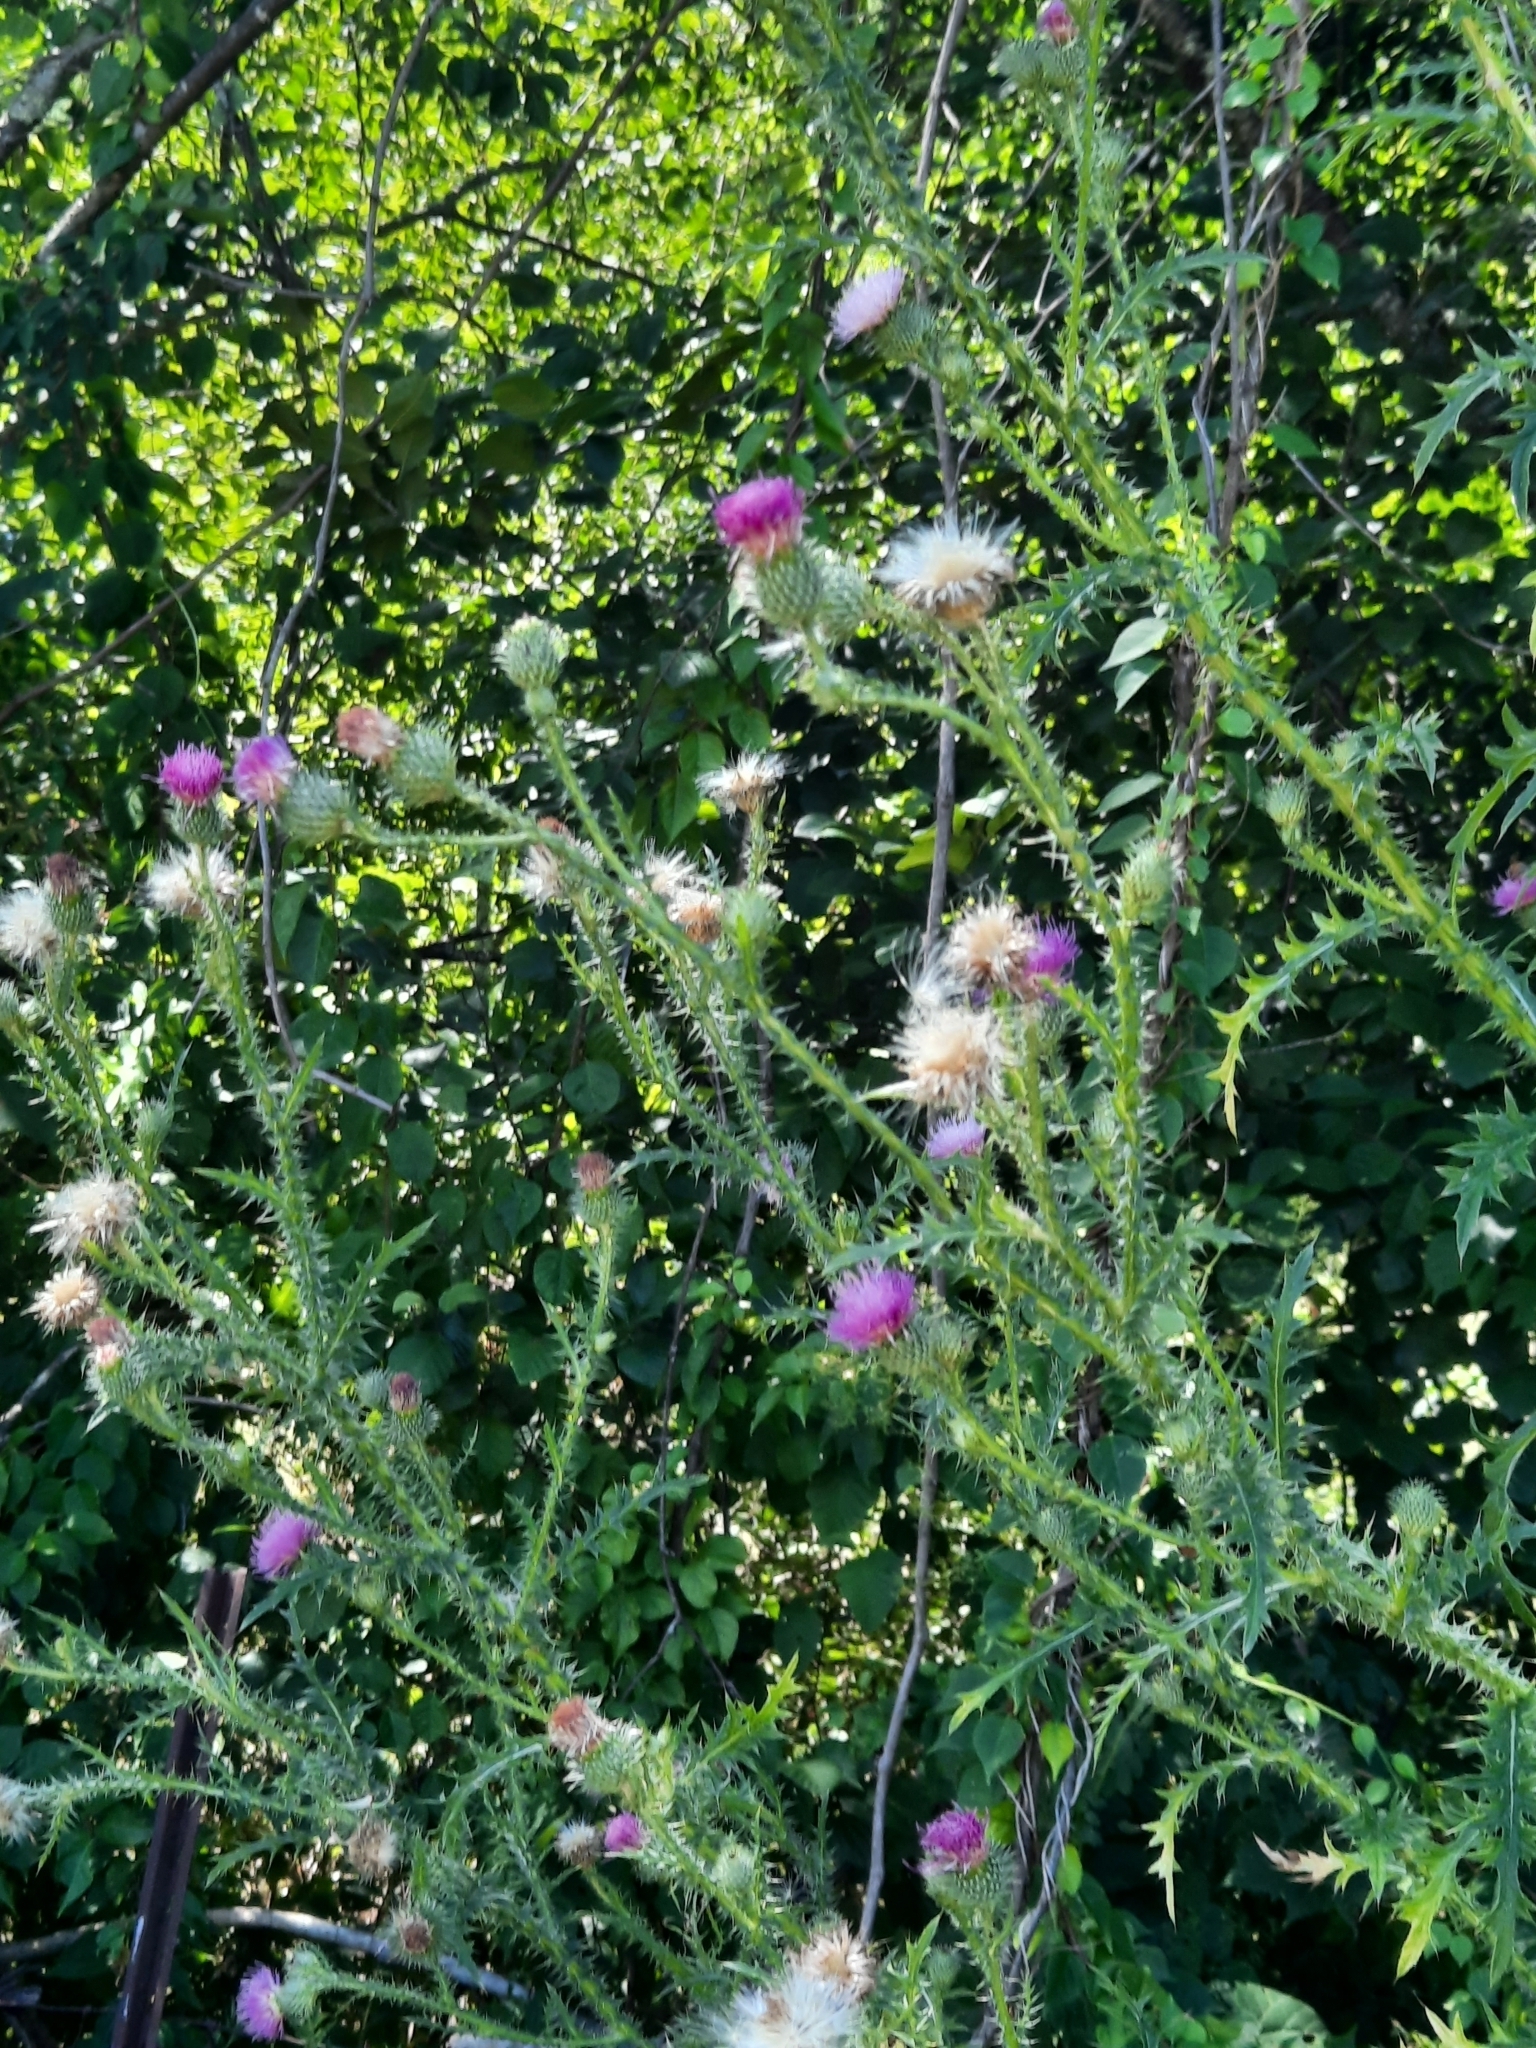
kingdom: Plantae
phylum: Tracheophyta
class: Magnoliopsida
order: Asterales
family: Asteraceae
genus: Carduus
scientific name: Carduus acanthoides
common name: Plumeless thistle
